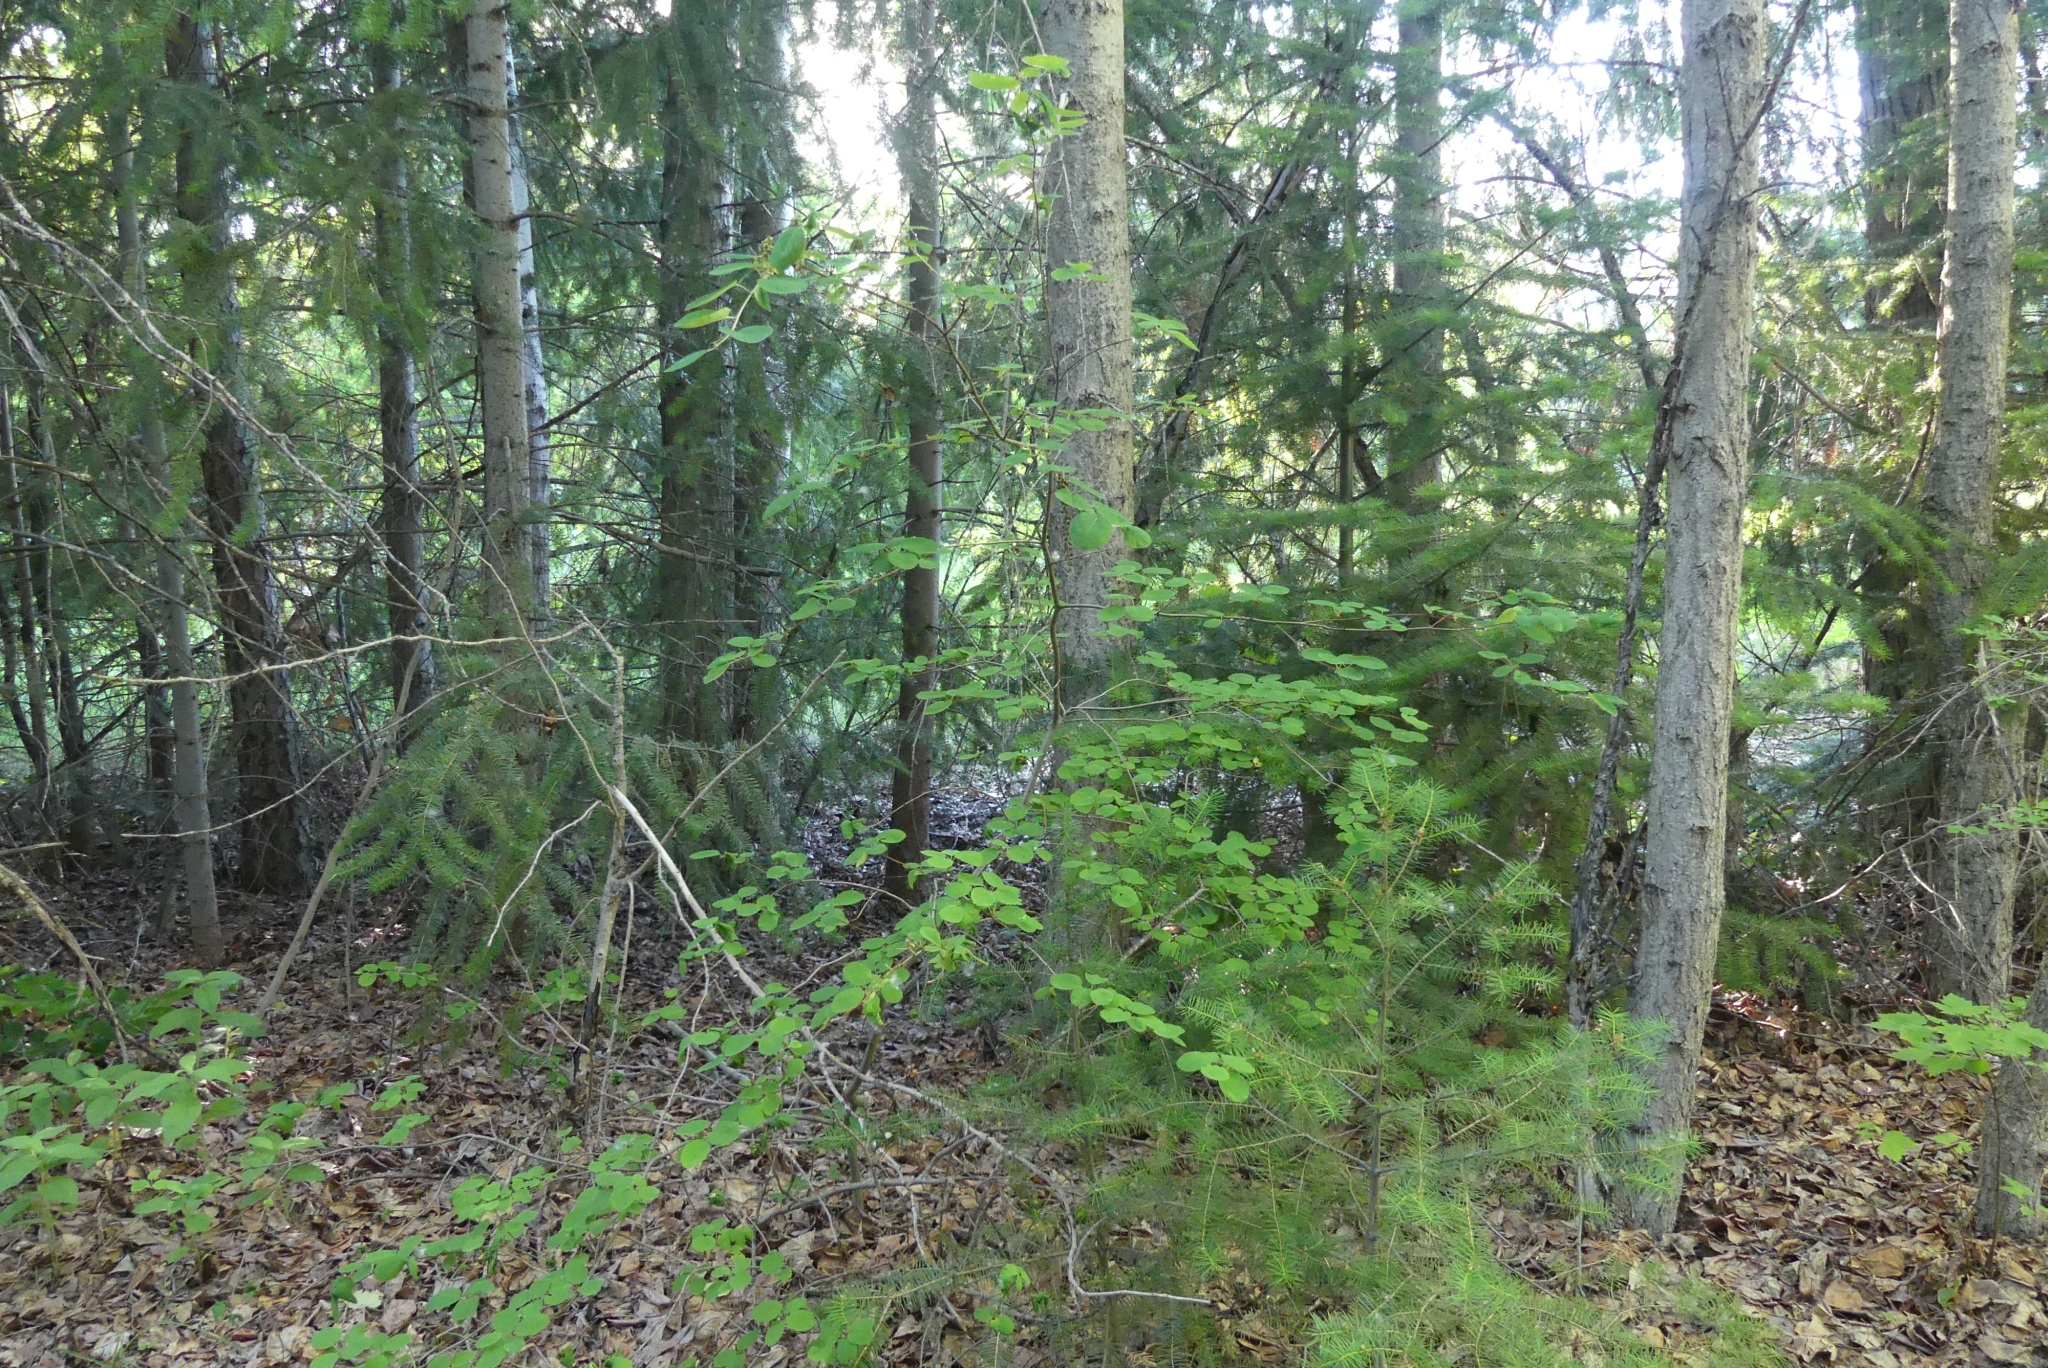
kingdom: Plantae
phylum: Tracheophyta
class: Magnoliopsida
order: Rosales
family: Rosaceae
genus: Amelanchier
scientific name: Amelanchier alnifolia
